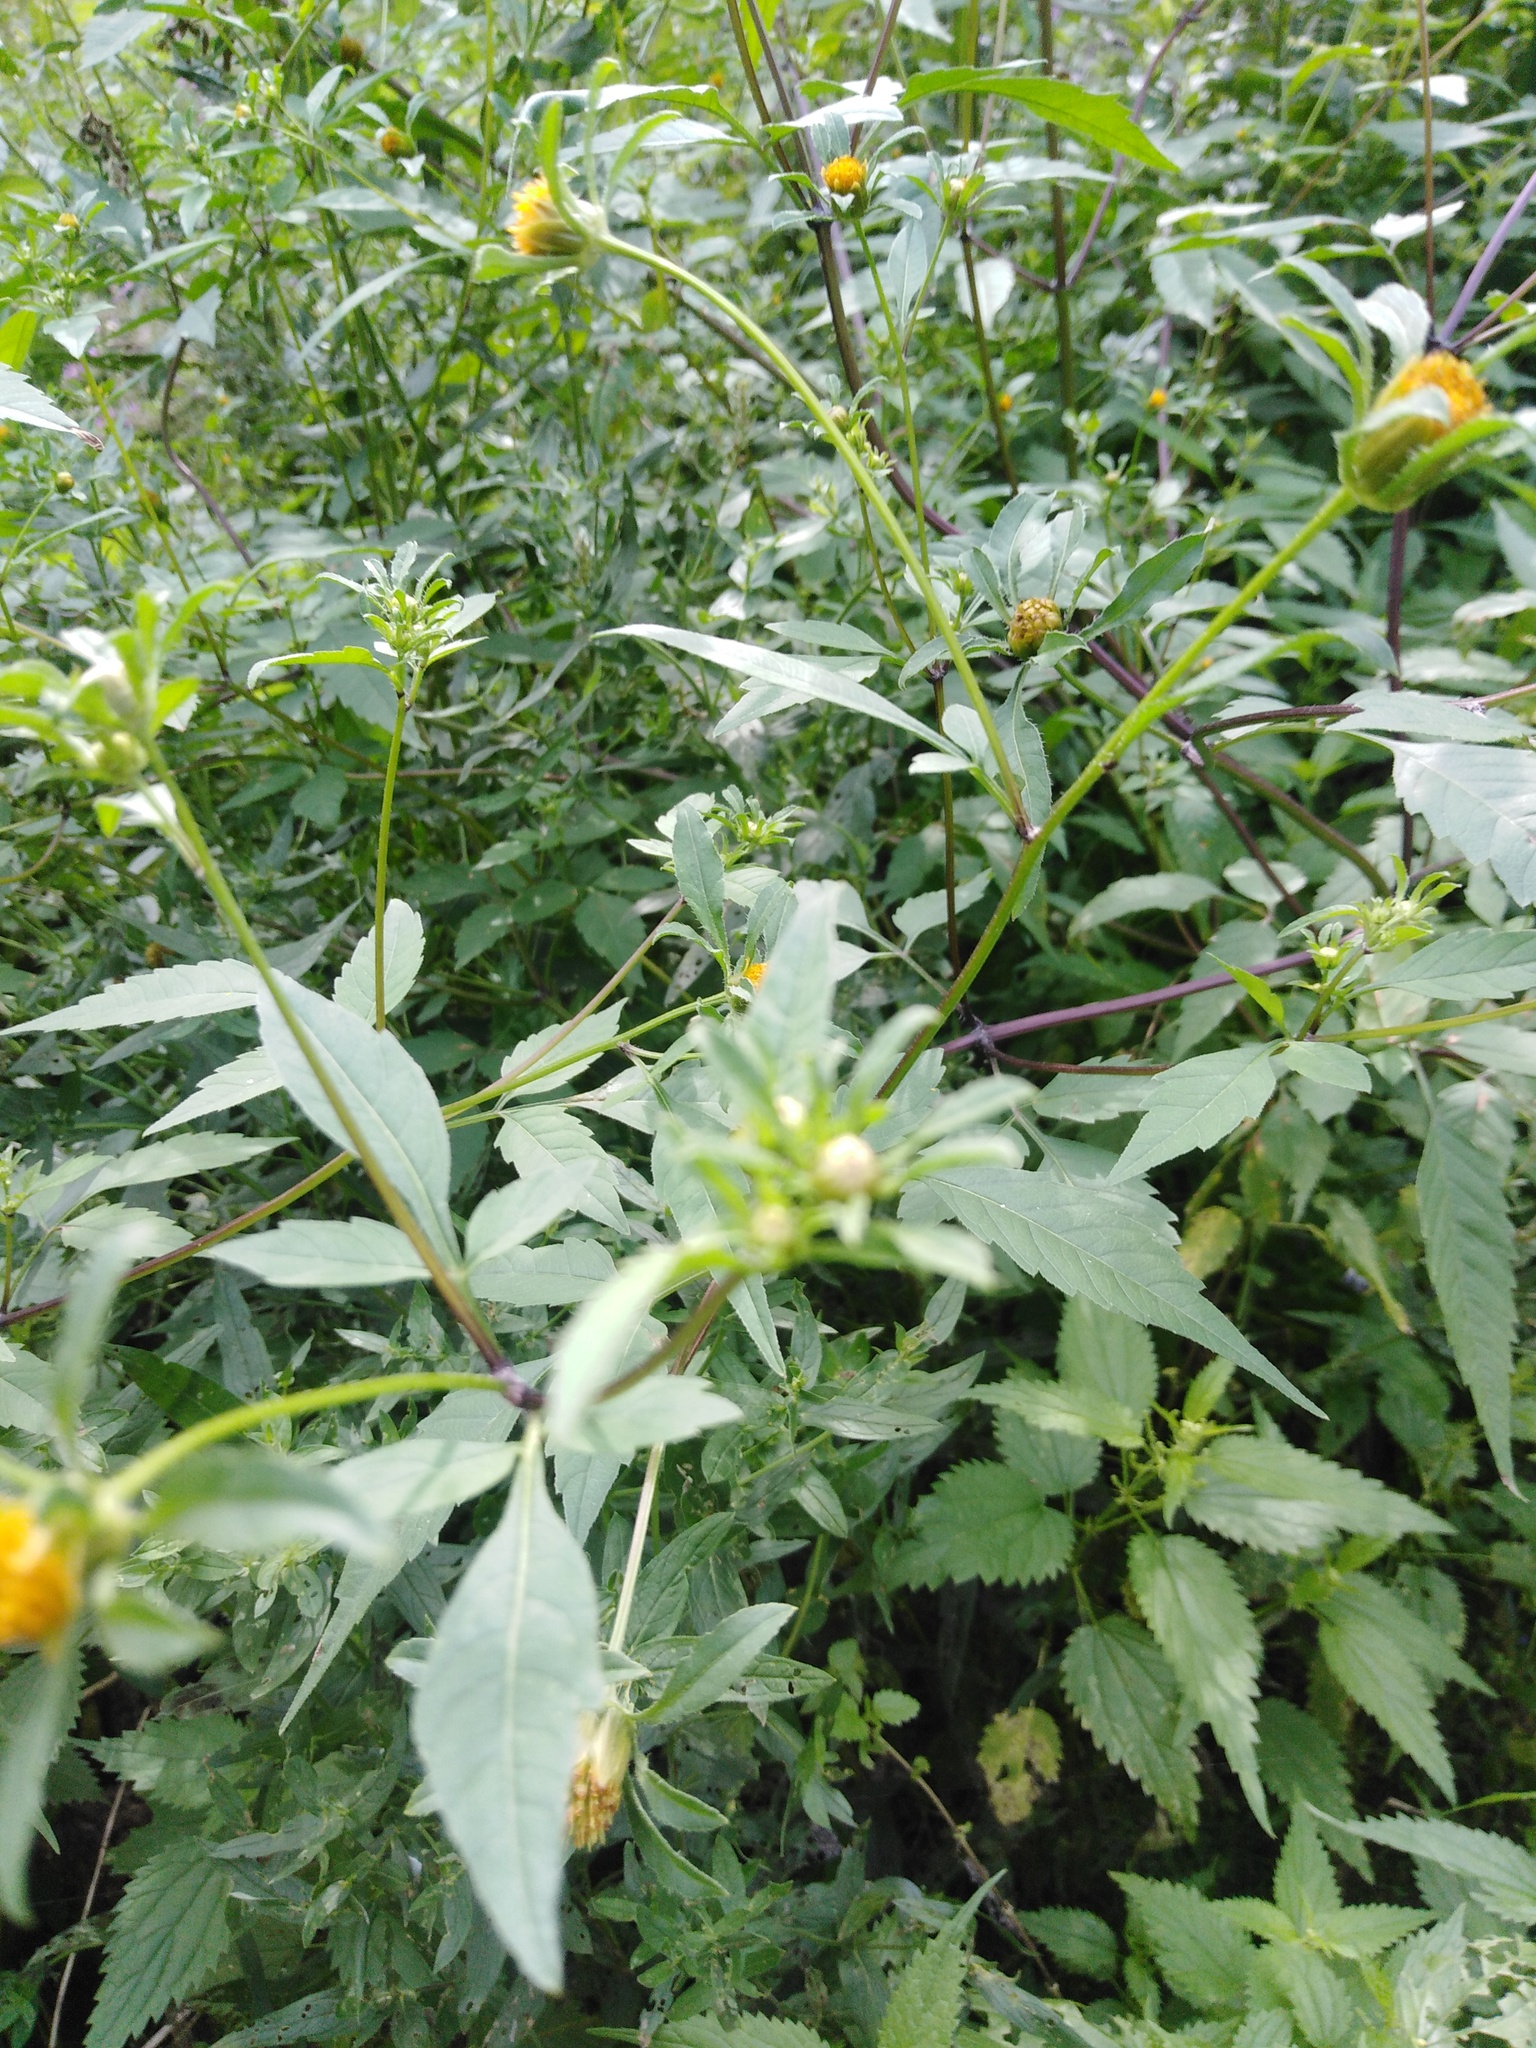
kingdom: Plantae
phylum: Tracheophyta
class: Magnoliopsida
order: Asterales
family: Asteraceae
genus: Bidens
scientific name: Bidens frondosa
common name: Beggarticks
